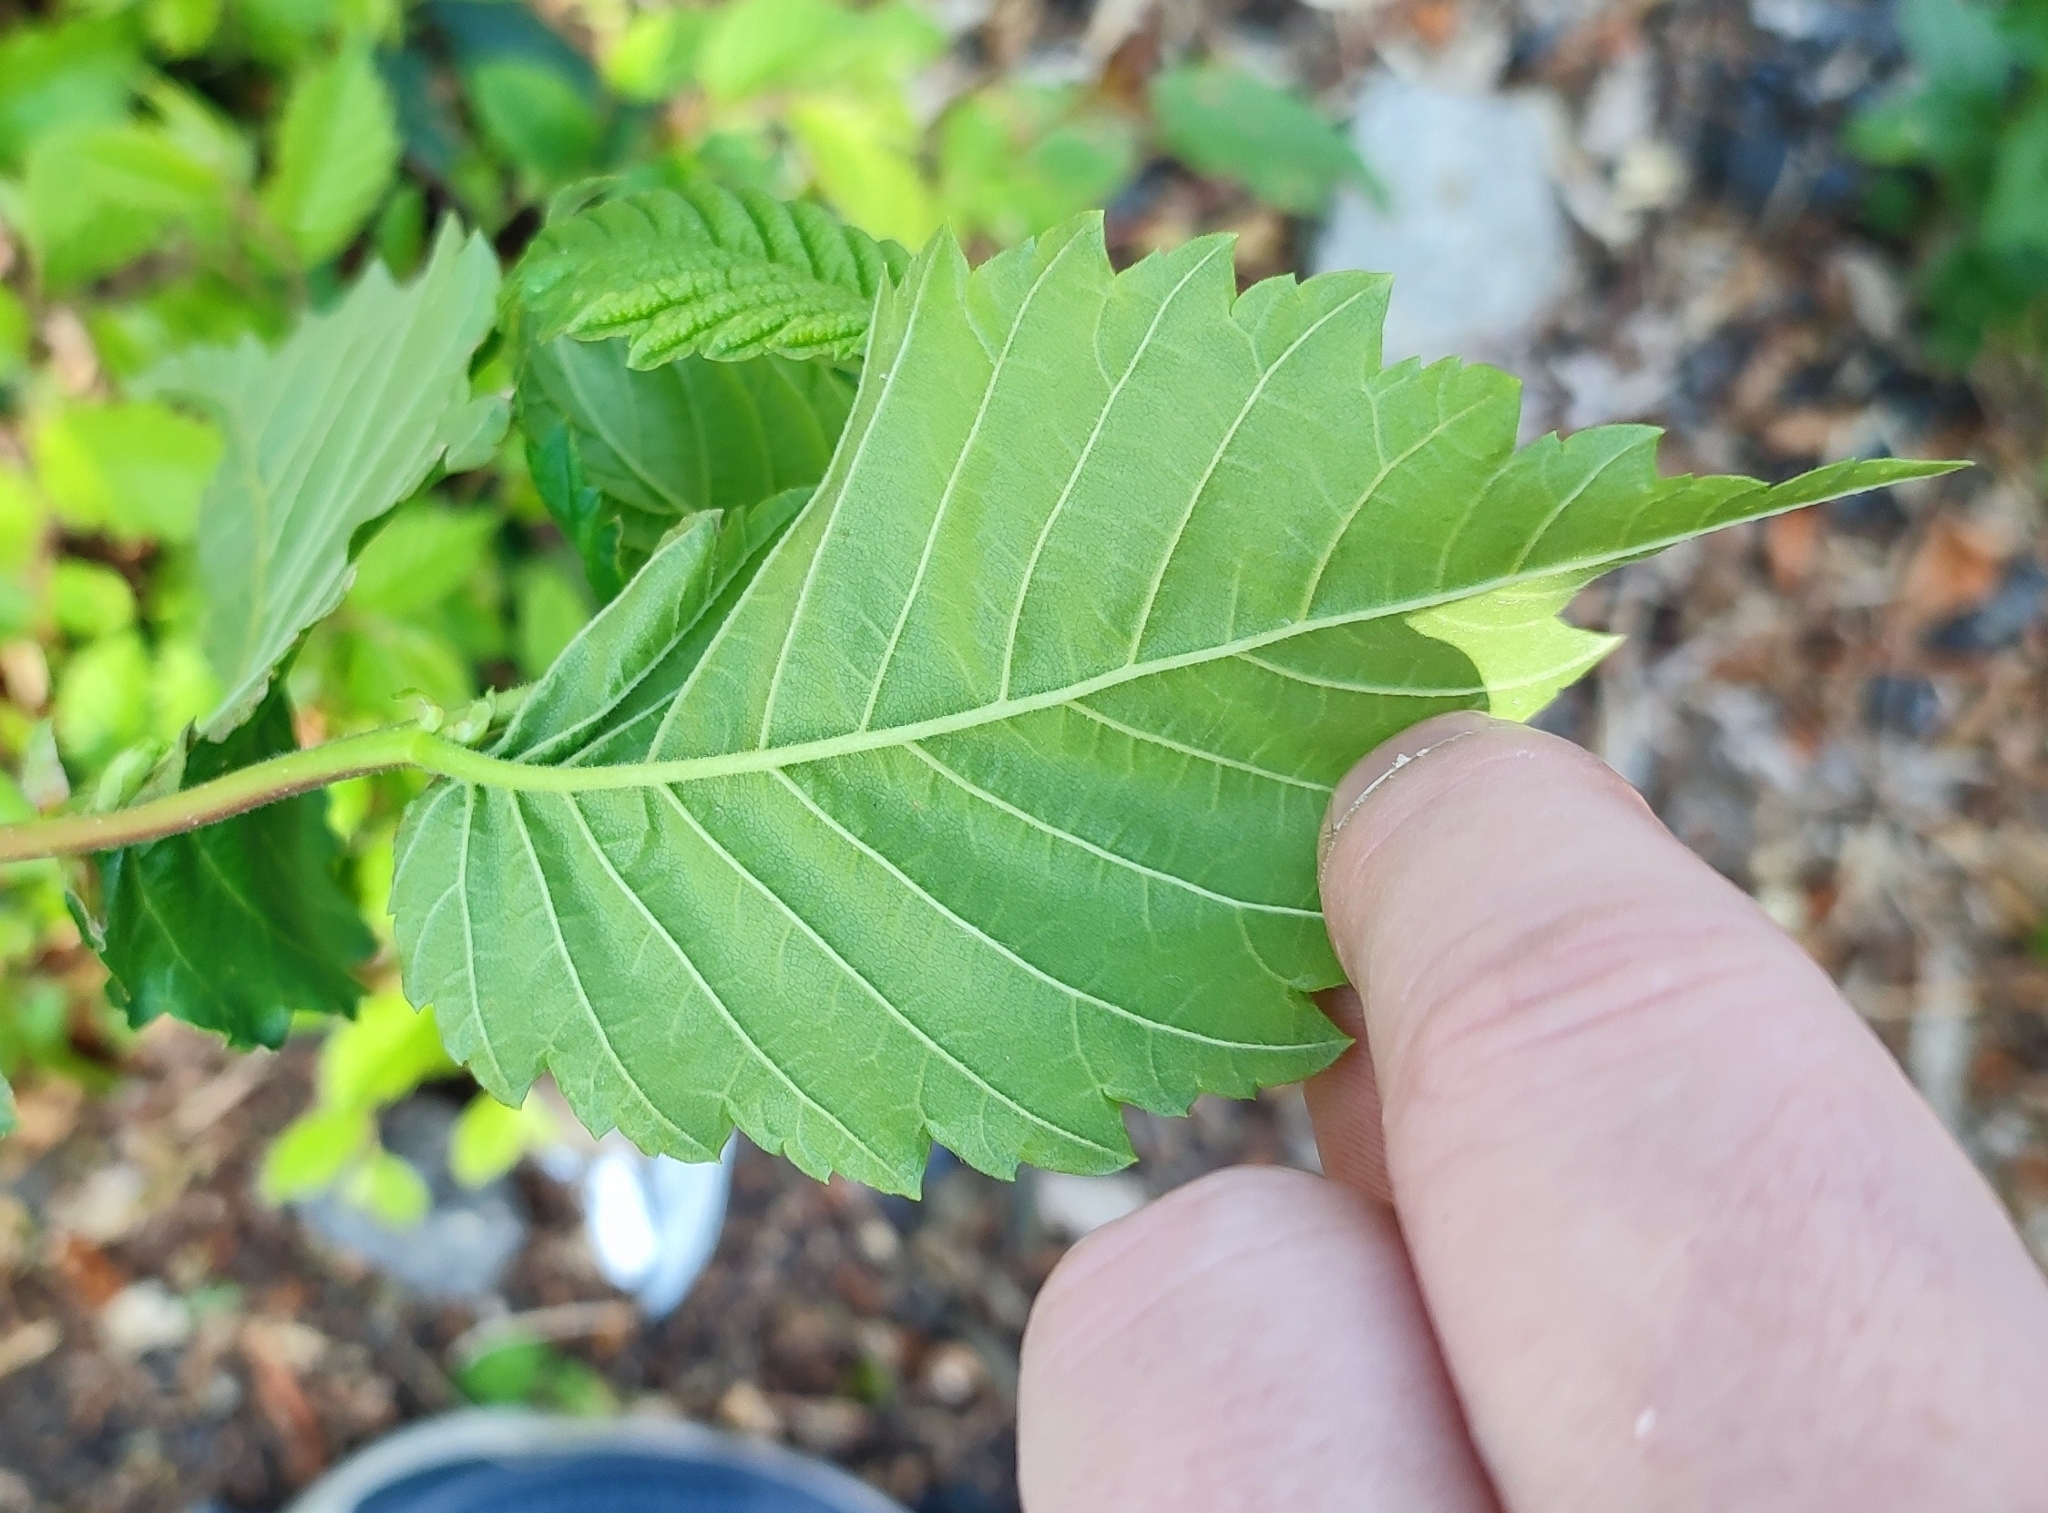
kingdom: Plantae
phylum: Tracheophyta
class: Magnoliopsida
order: Rosales
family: Ulmaceae
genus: Ulmus
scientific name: Ulmus laevis
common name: European white-elm
